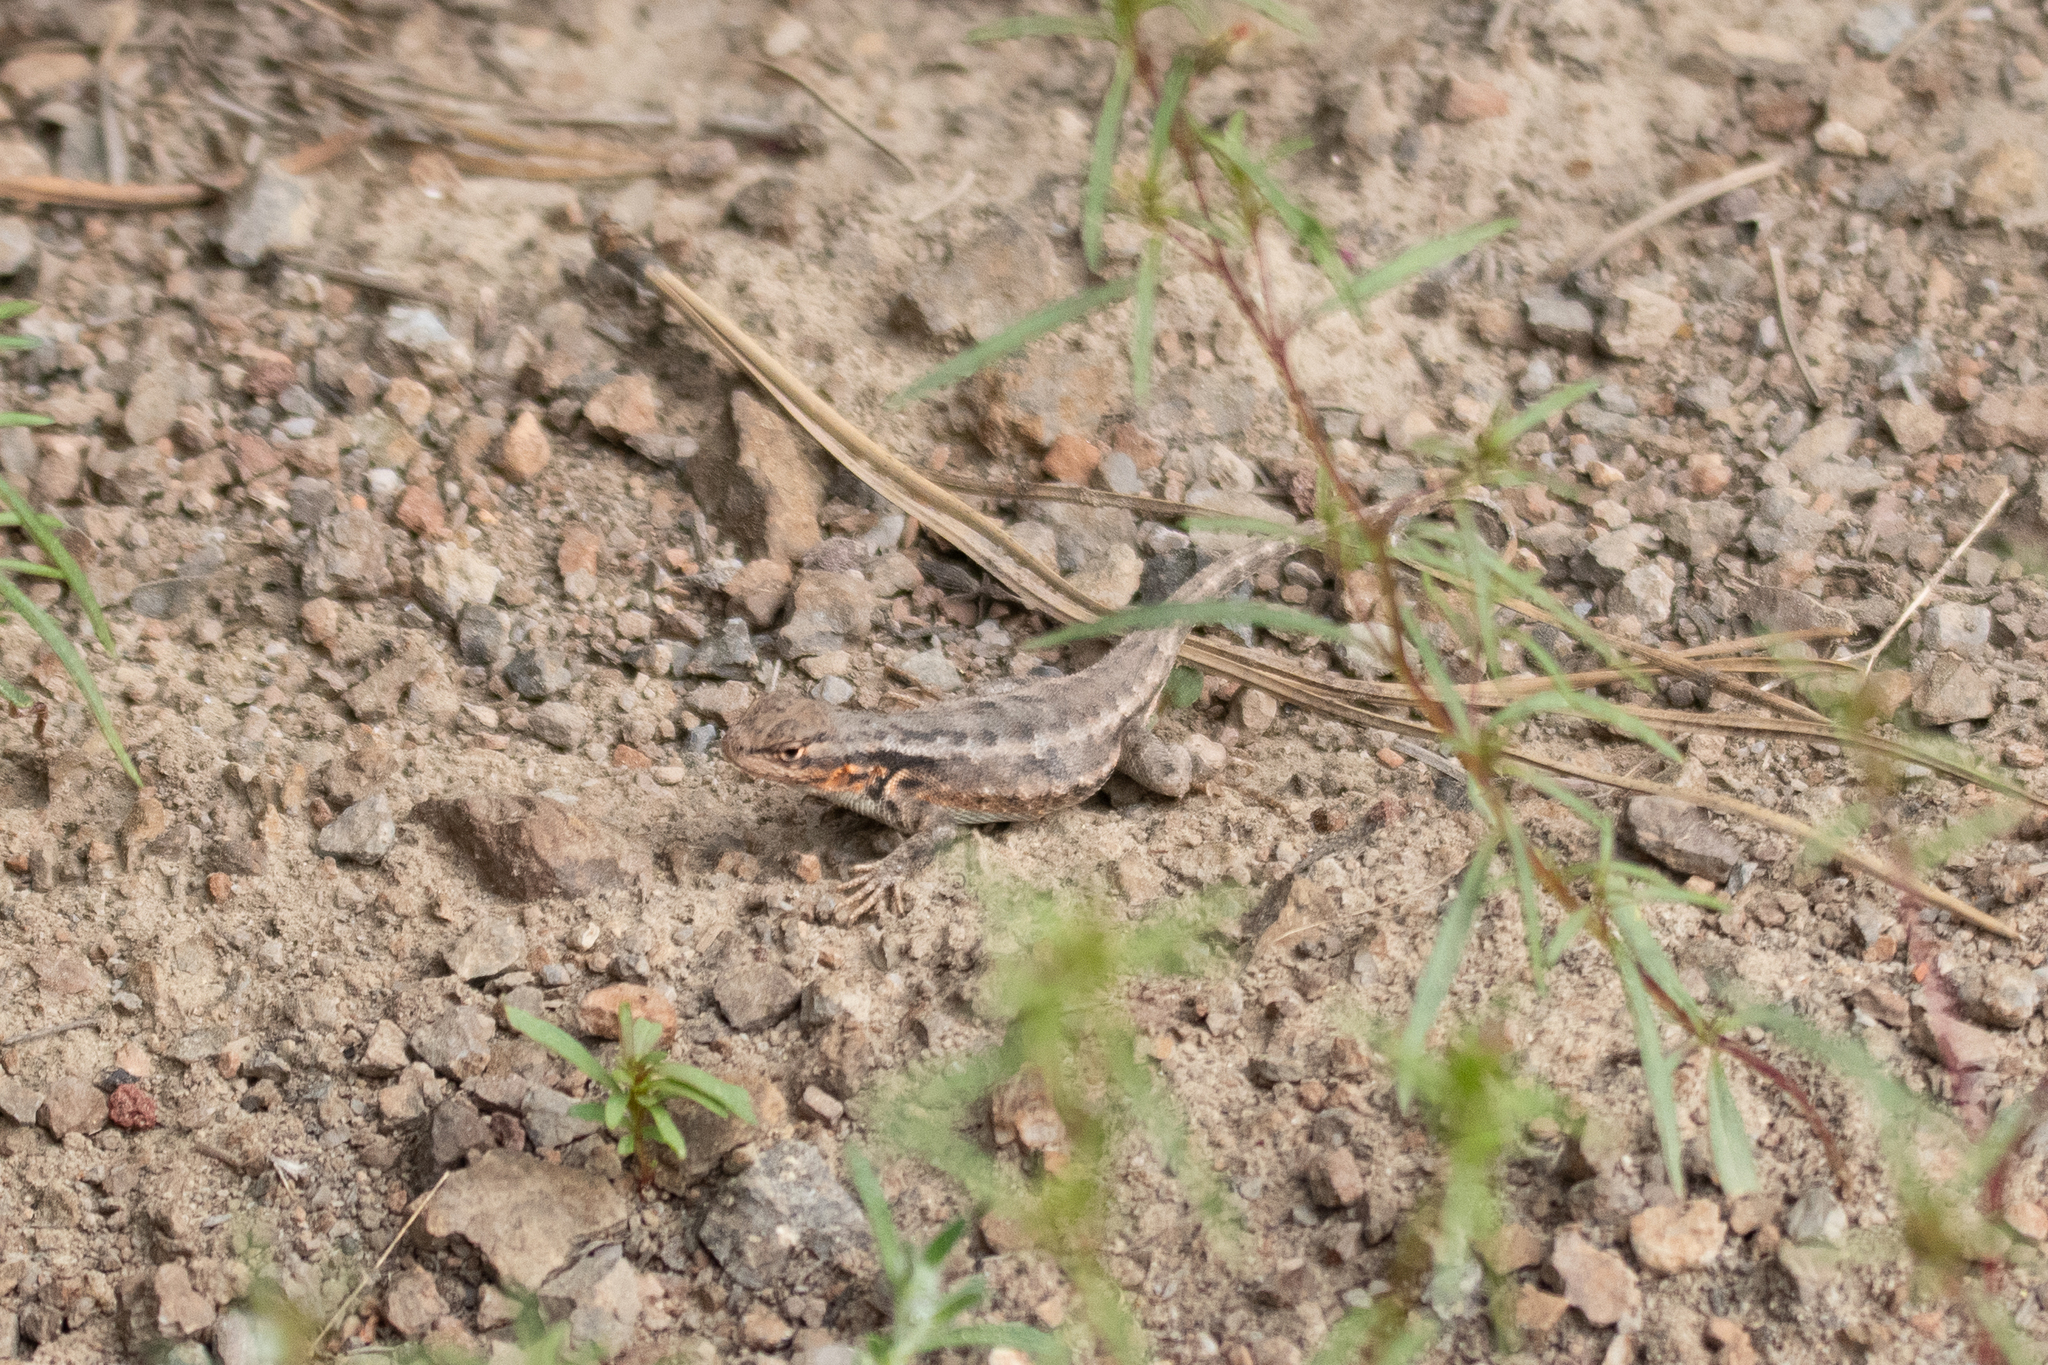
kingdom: Animalia
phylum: Chordata
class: Squamata
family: Phrynosomatidae
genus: Sceloporus
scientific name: Sceloporus graciosus
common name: Sagebrush lizard
